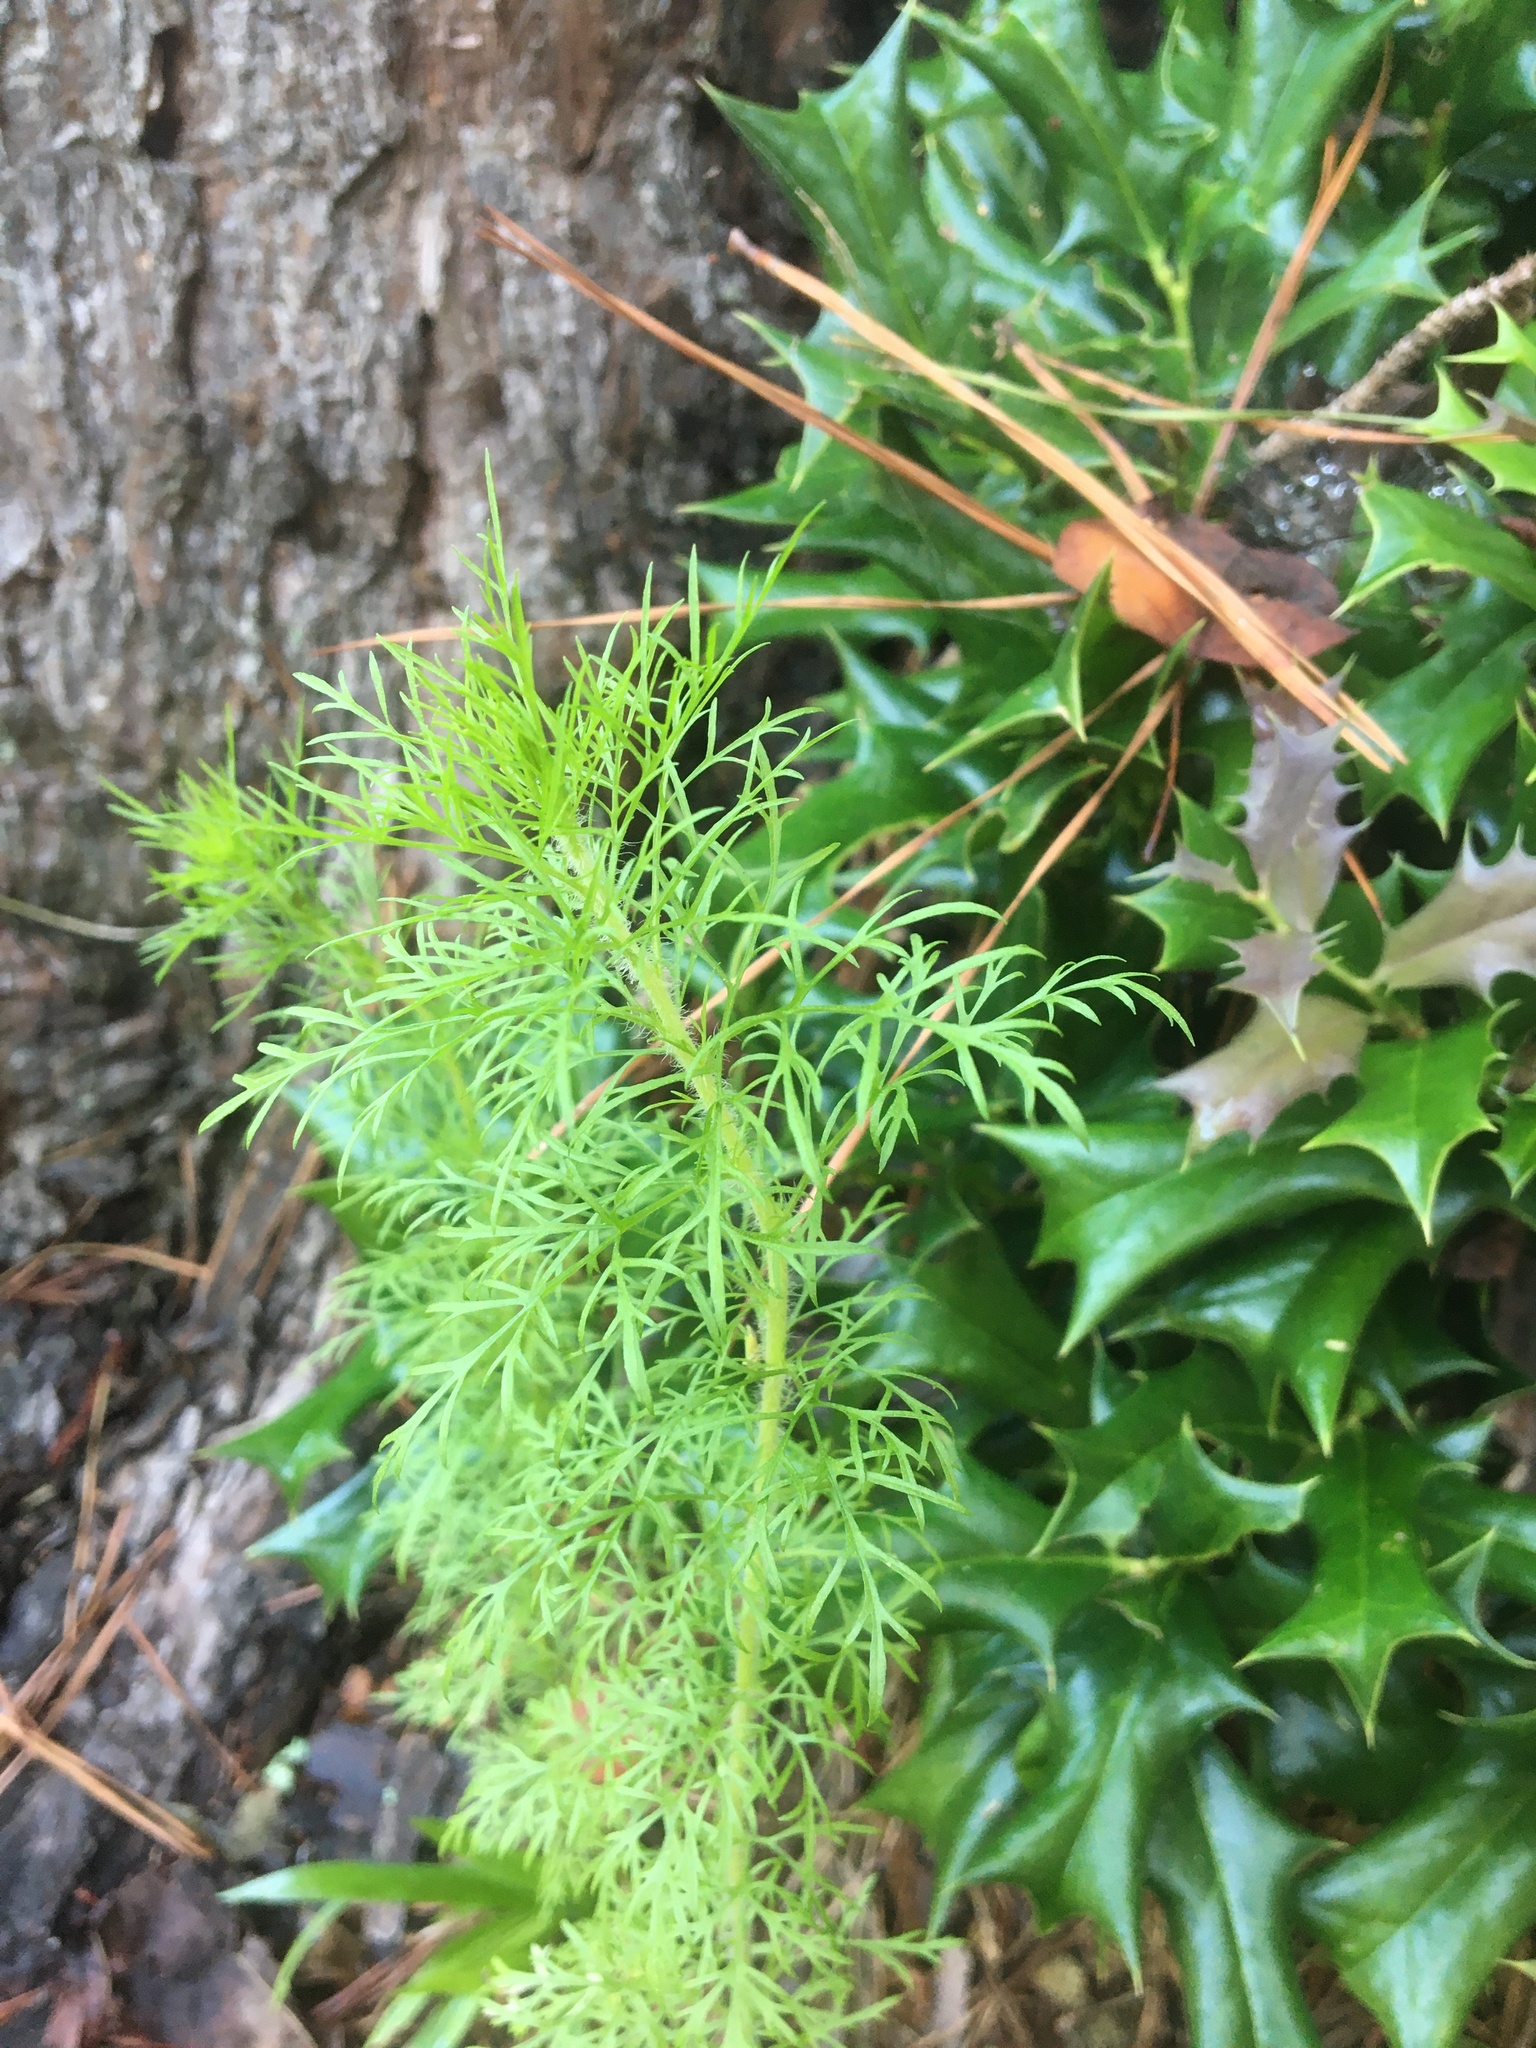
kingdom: Plantae
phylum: Tracheophyta
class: Magnoliopsida
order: Asterales
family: Asteraceae
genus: Eupatorium
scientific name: Eupatorium capillifolium
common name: Dog-fennel
